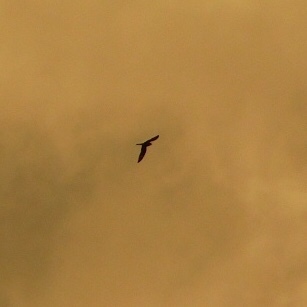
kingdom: Animalia
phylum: Chordata
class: Aves
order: Caprimulgiformes
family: Caprimulgidae
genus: Chordeiles
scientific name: Chordeiles minor
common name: Common nighthawk
